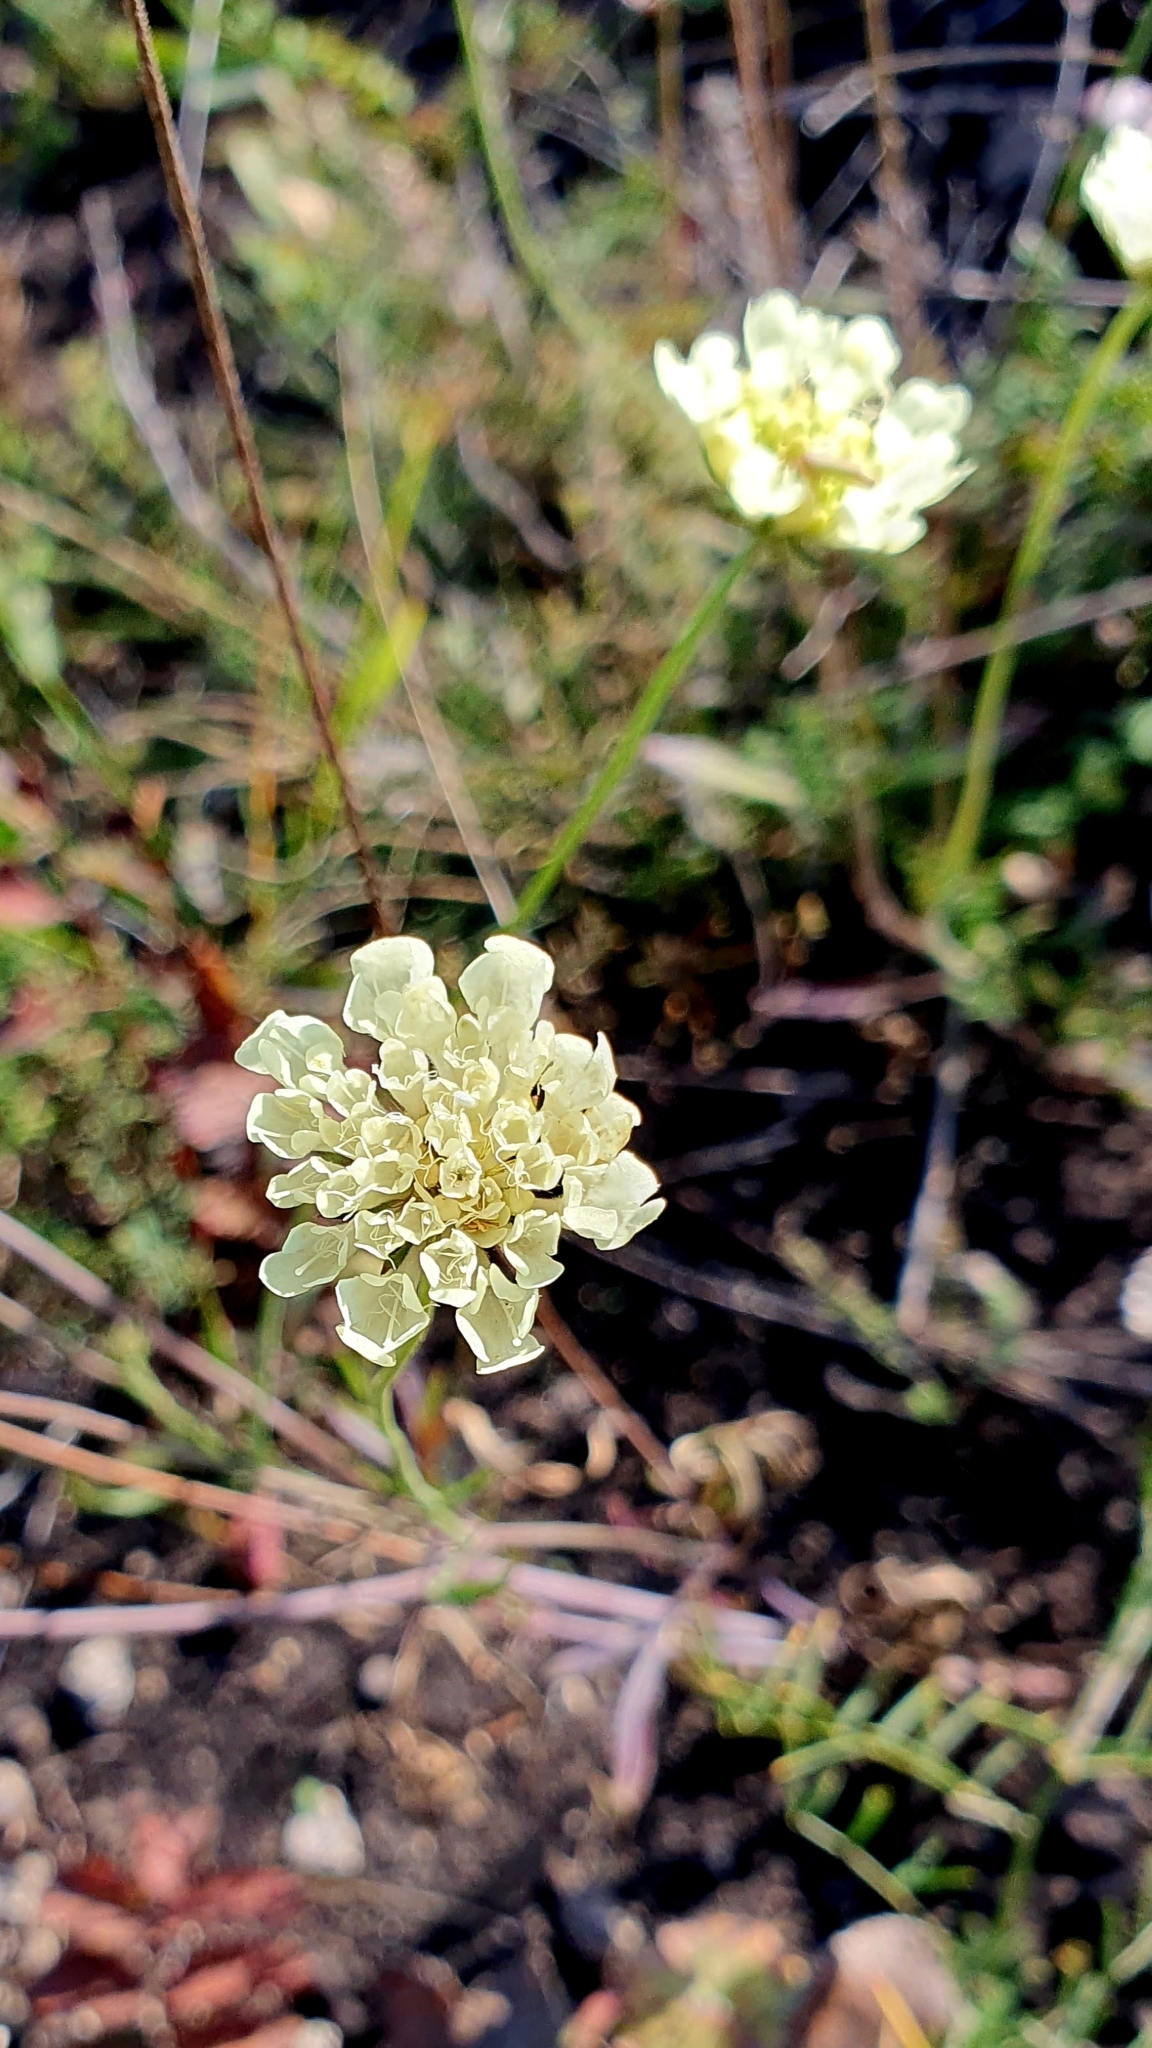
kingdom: Plantae
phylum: Tracheophyta
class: Magnoliopsida
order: Dipsacales
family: Caprifoliaceae
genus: Scabiosa
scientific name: Scabiosa ochroleuca
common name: Cream pincushions
